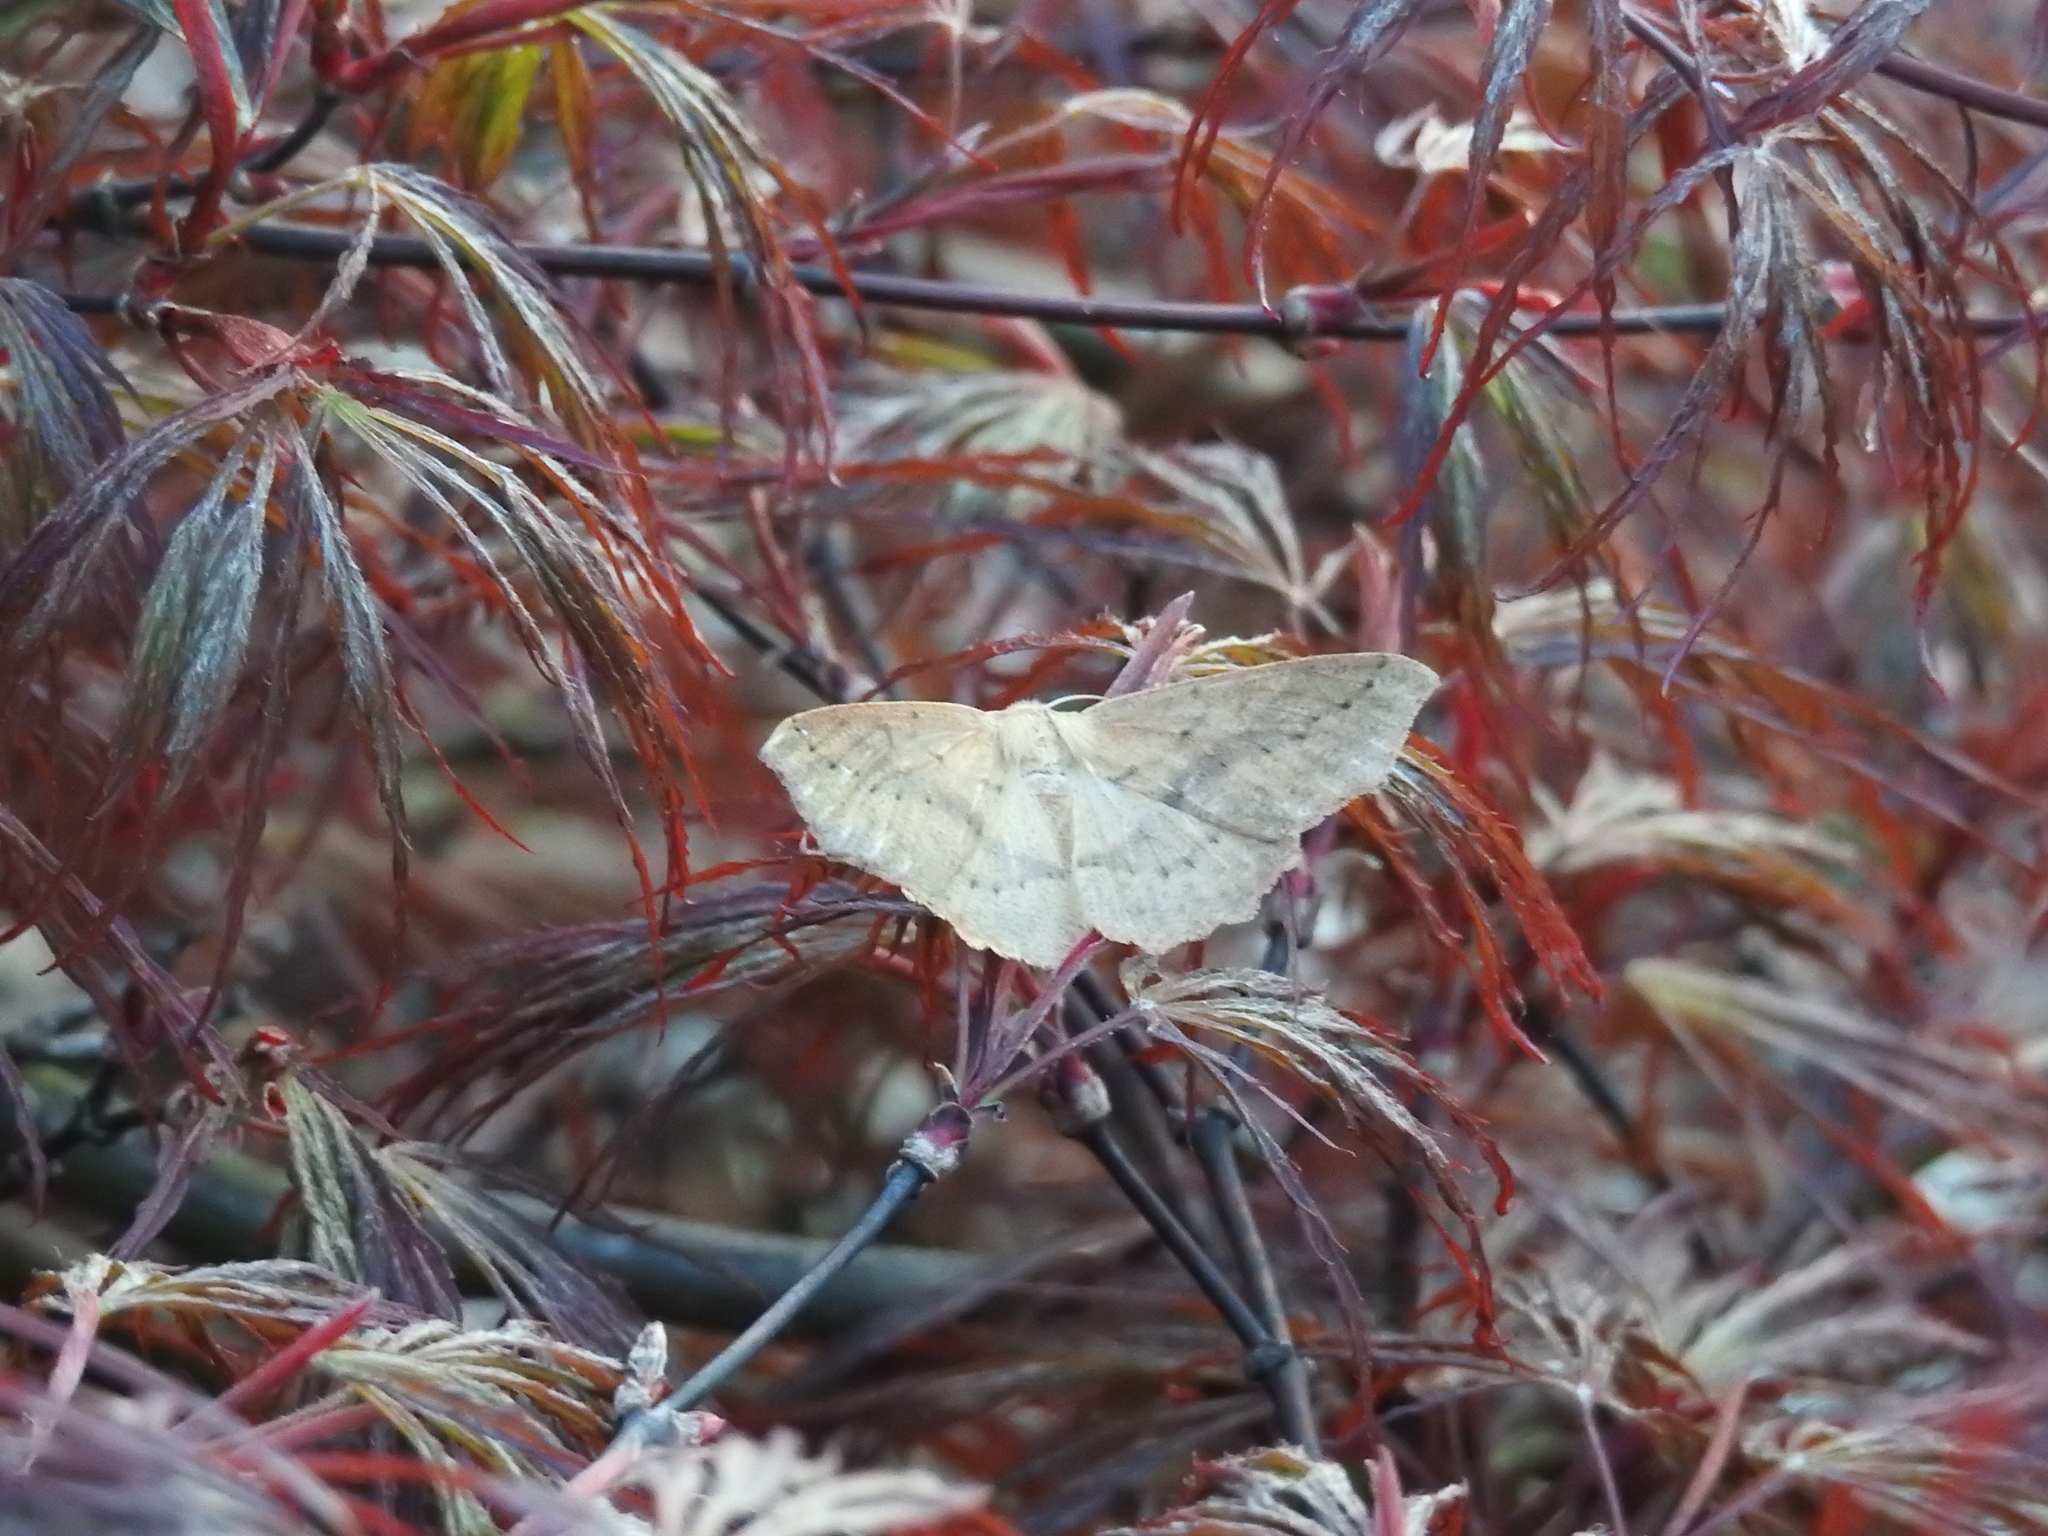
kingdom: Animalia
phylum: Arthropoda
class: Insecta
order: Lepidoptera
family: Geometridae
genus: Sabulodes
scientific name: Sabulodes aegrotata
